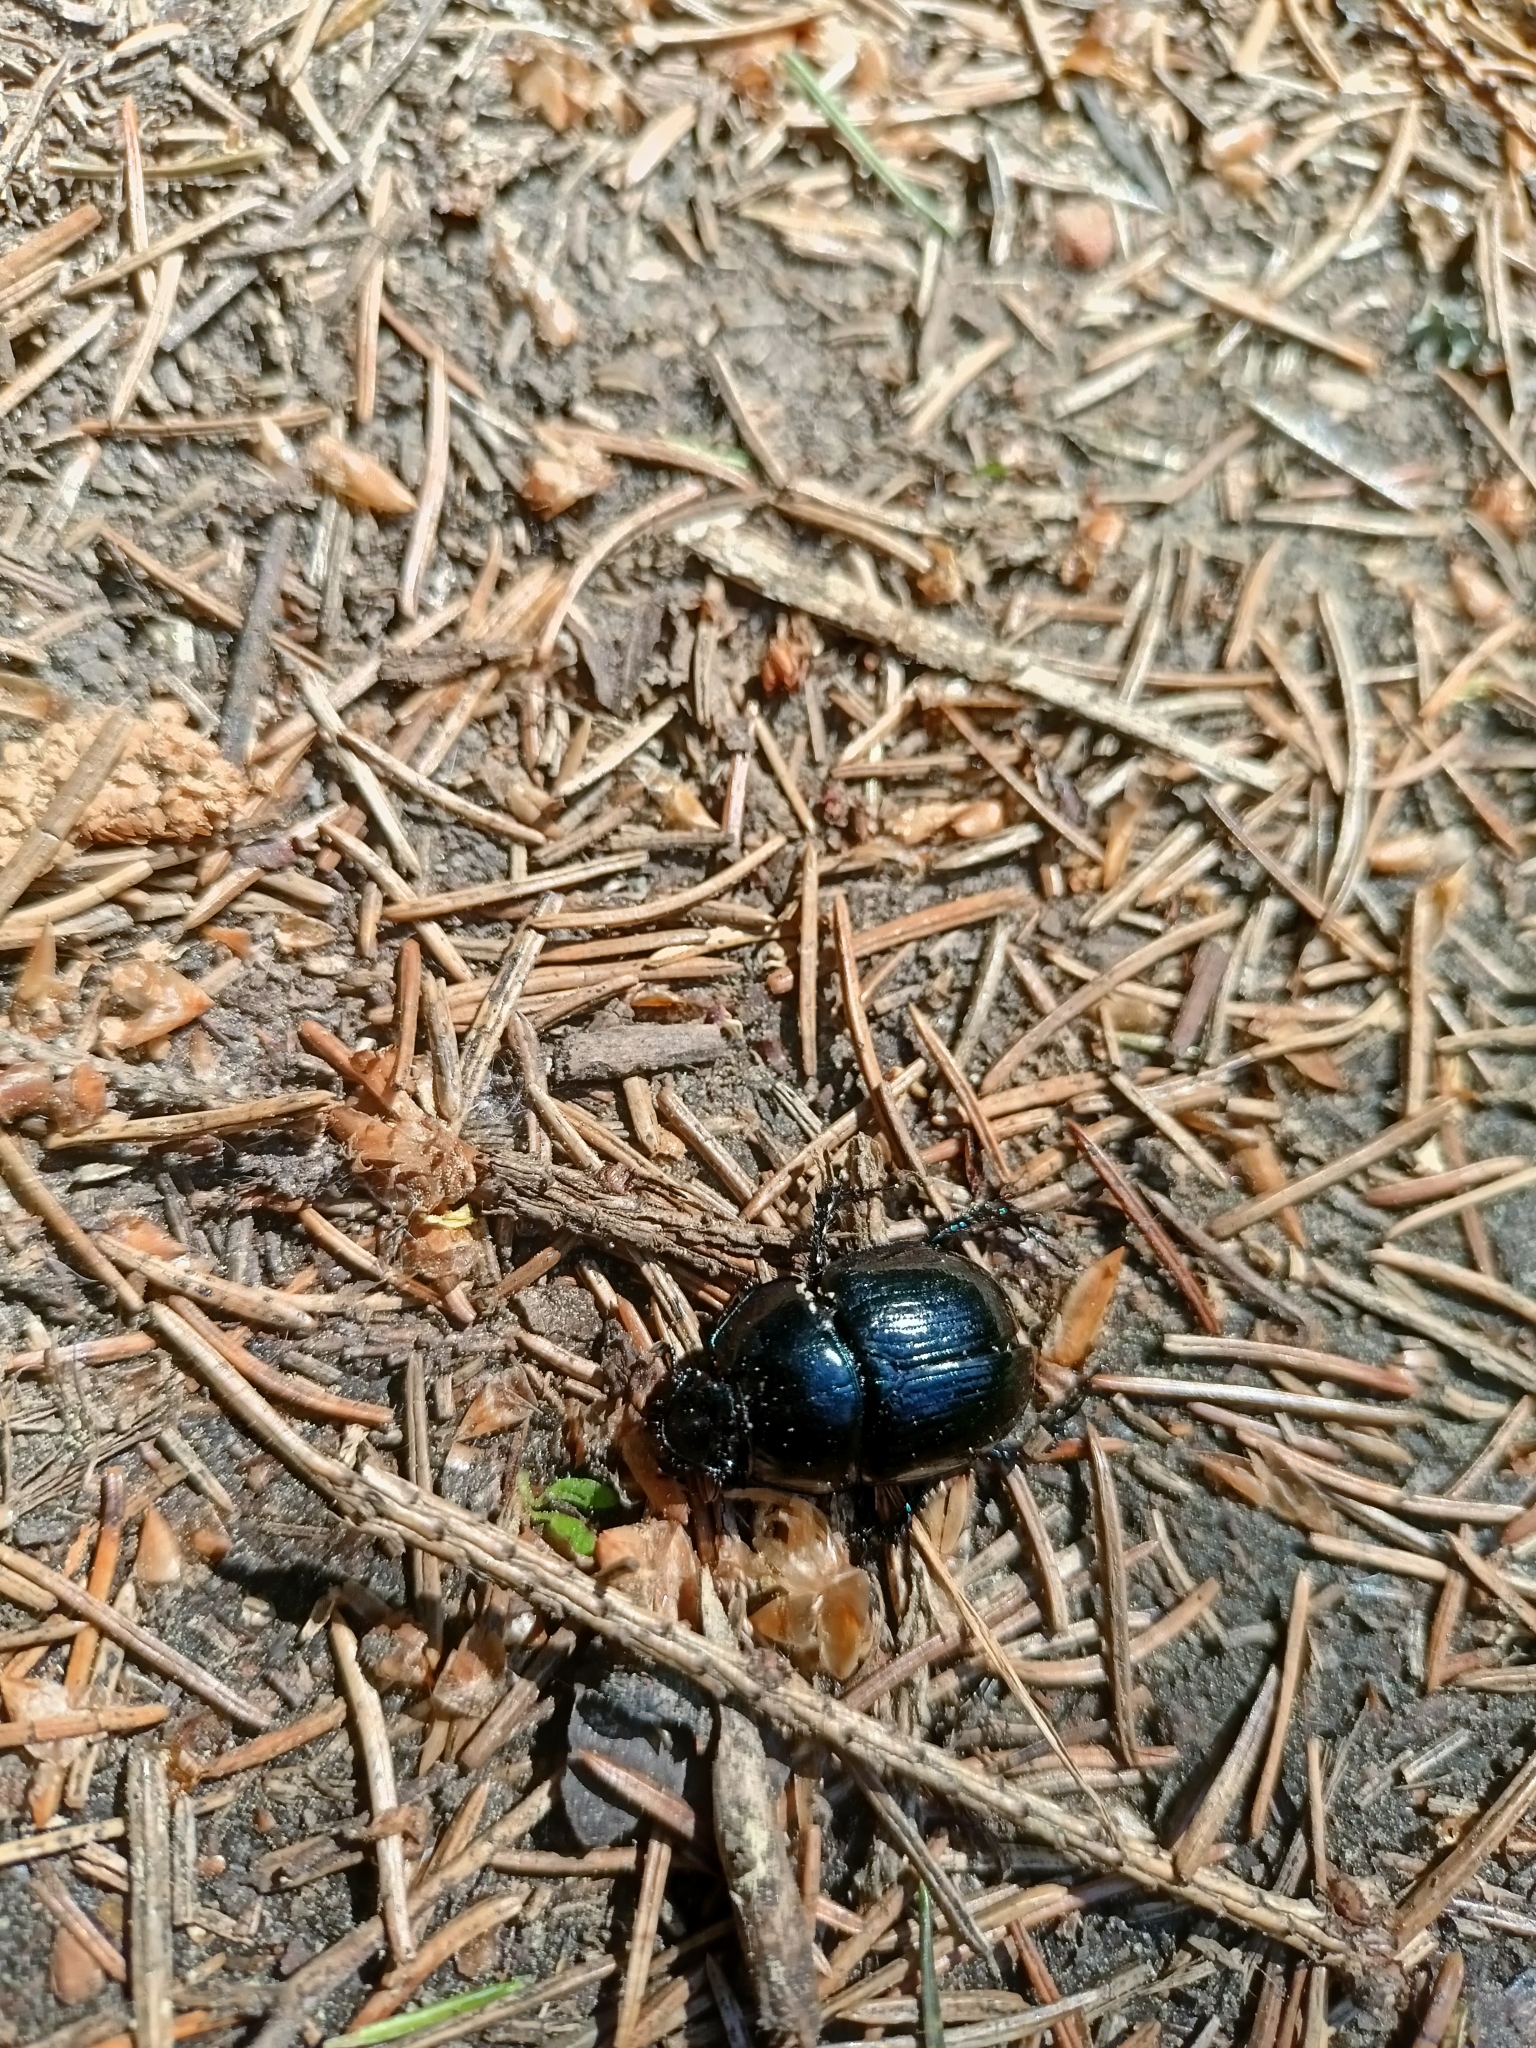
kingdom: Animalia
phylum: Arthropoda
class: Insecta
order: Coleoptera
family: Geotrupidae
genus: Anoplotrupes
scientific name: Anoplotrupes stercorosus
